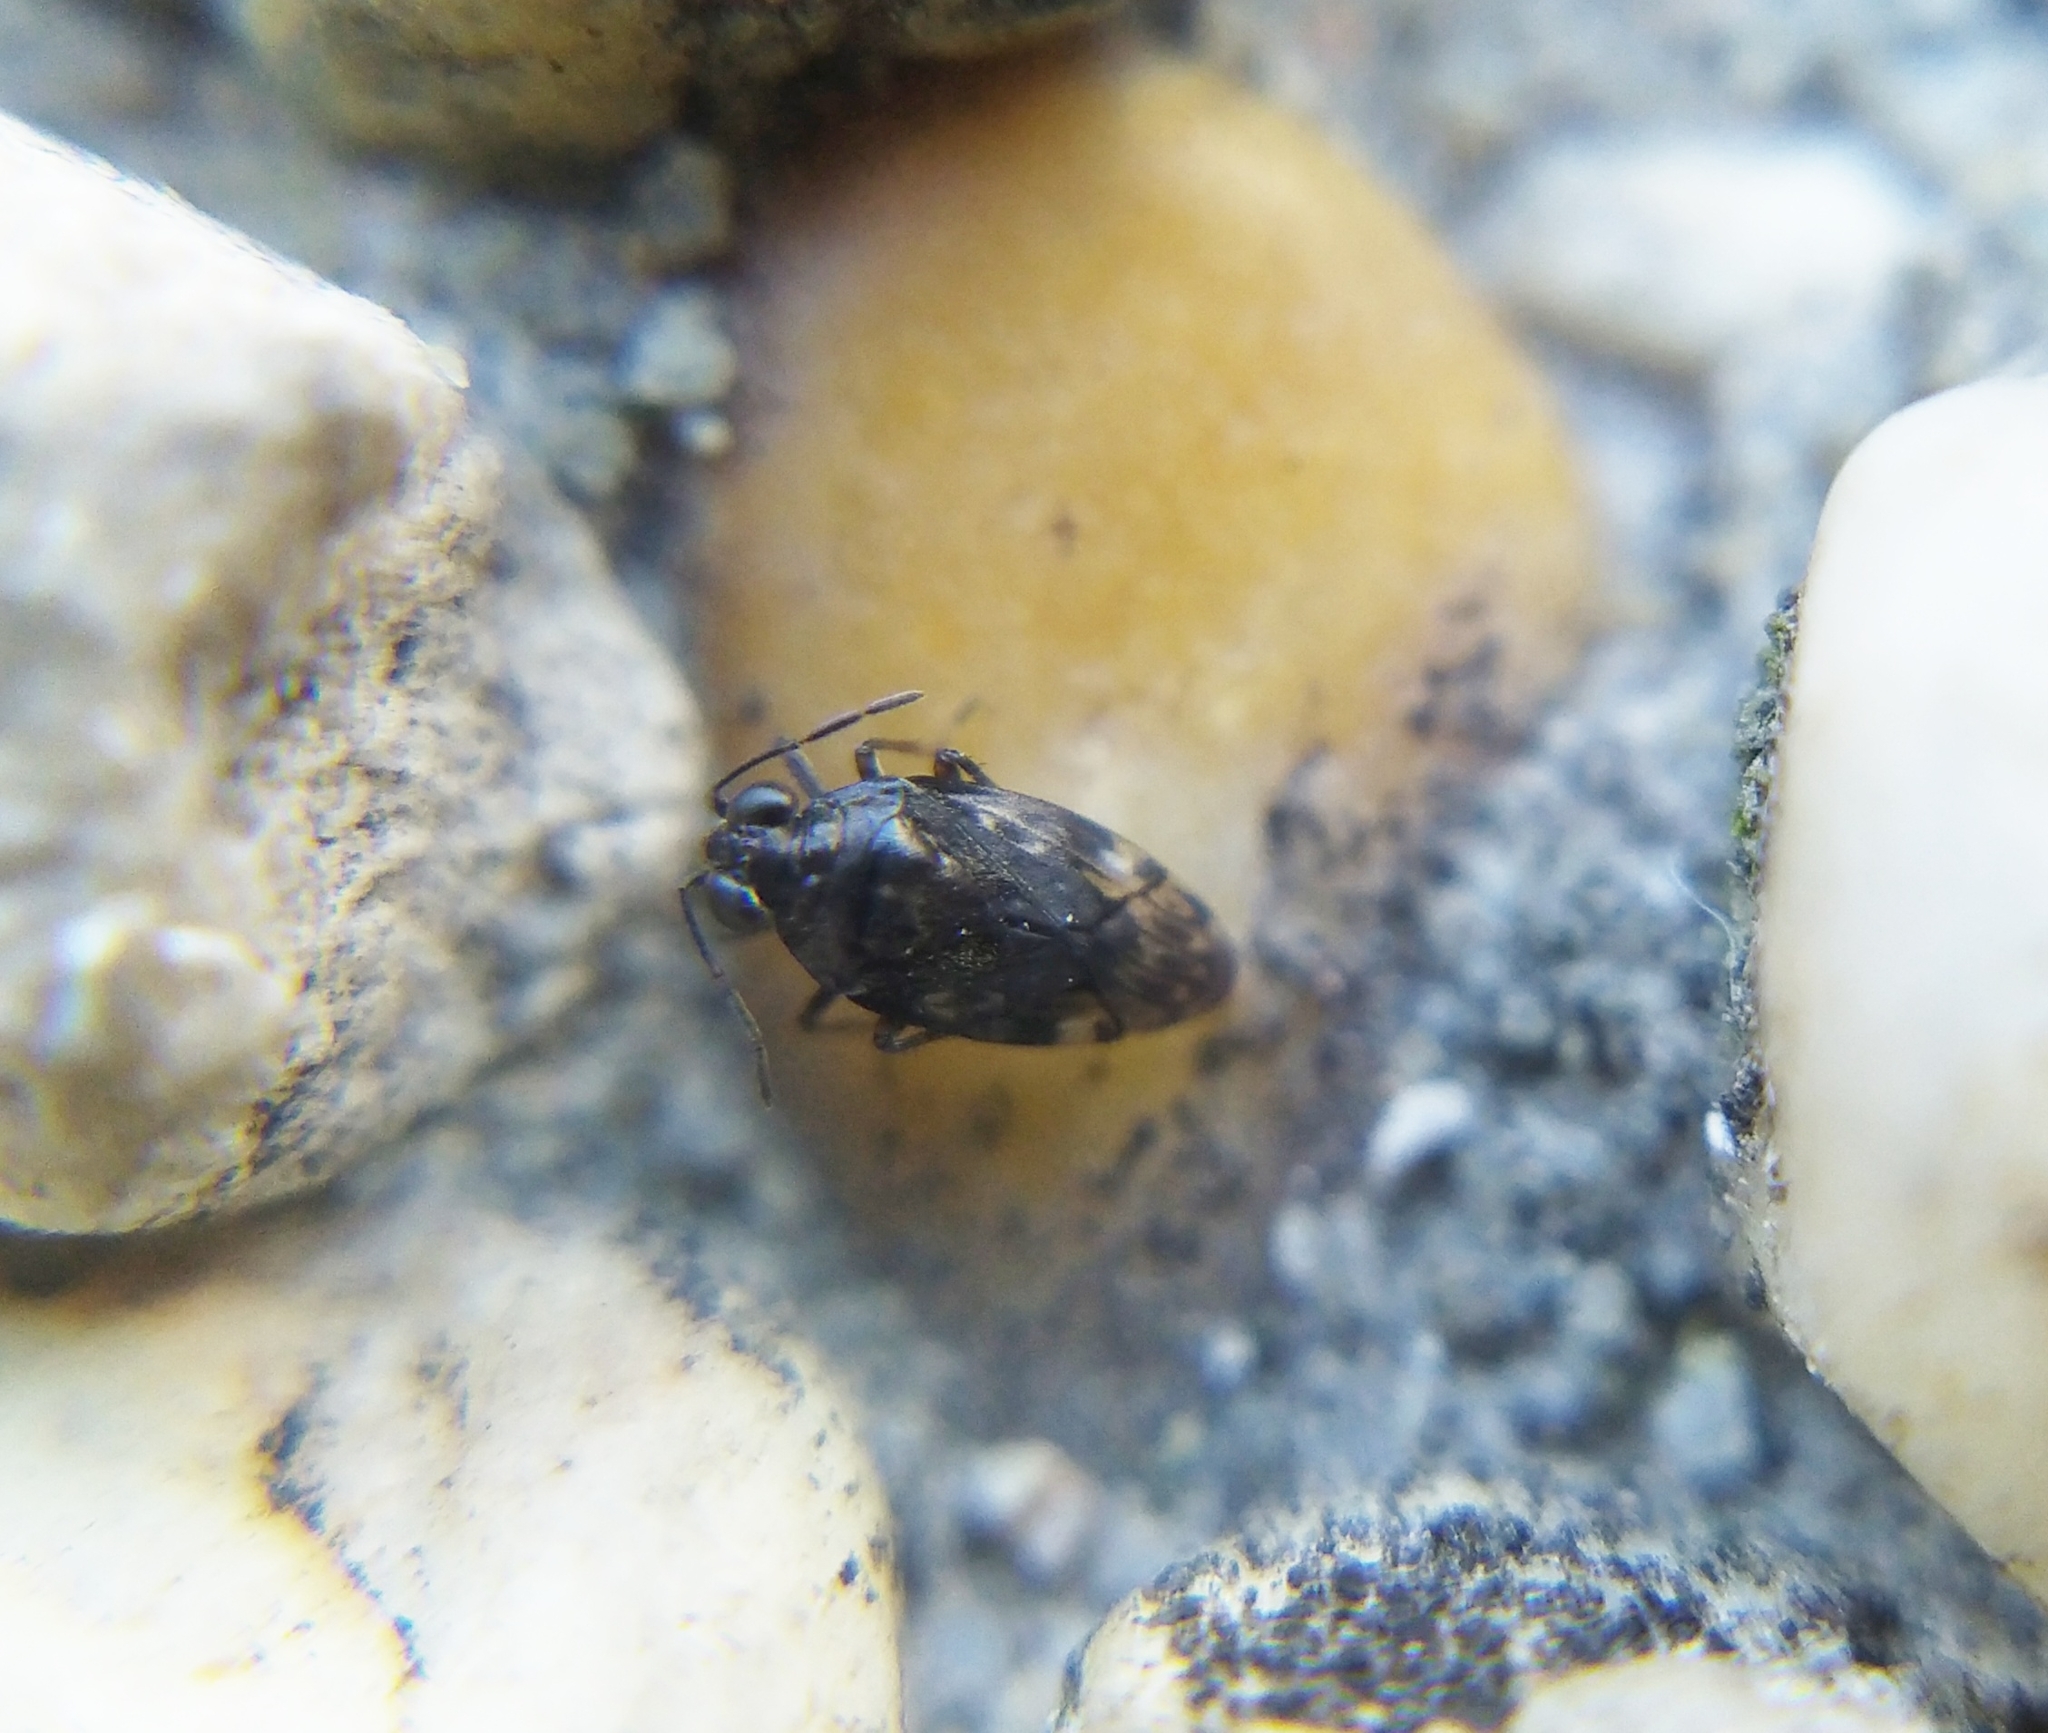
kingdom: Animalia
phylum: Arthropoda
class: Insecta
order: Hemiptera
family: Saldidae
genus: Saldula
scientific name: Saldula saltatoria
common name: Common shorebug
